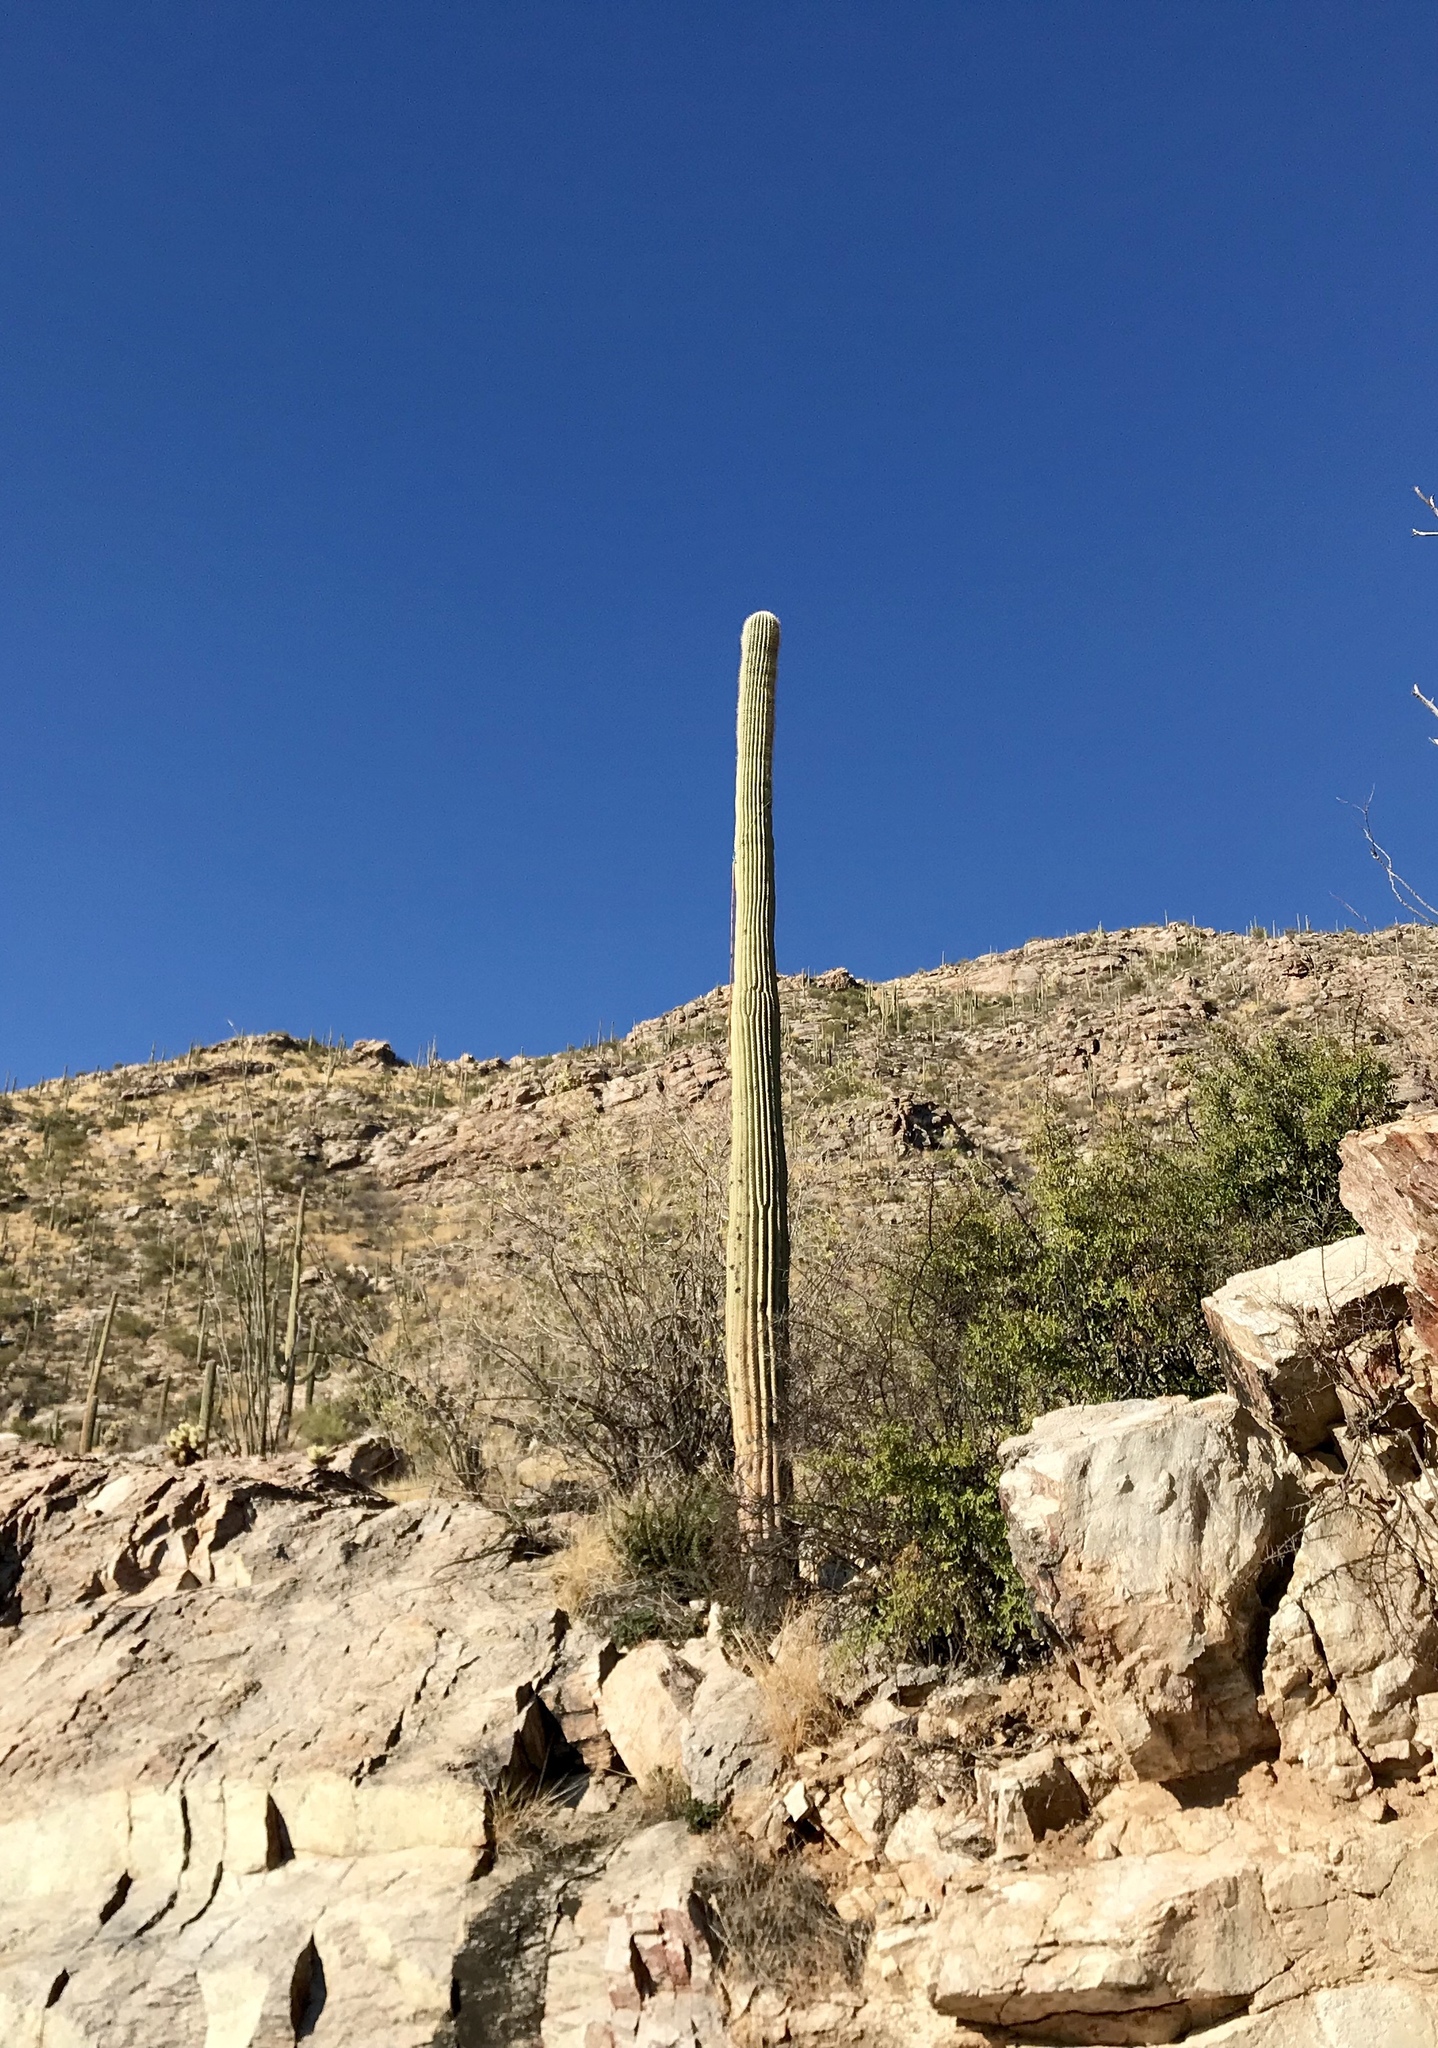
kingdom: Plantae
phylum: Tracheophyta
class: Magnoliopsida
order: Caryophyllales
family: Cactaceae
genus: Carnegiea
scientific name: Carnegiea gigantea
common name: Saguaro
